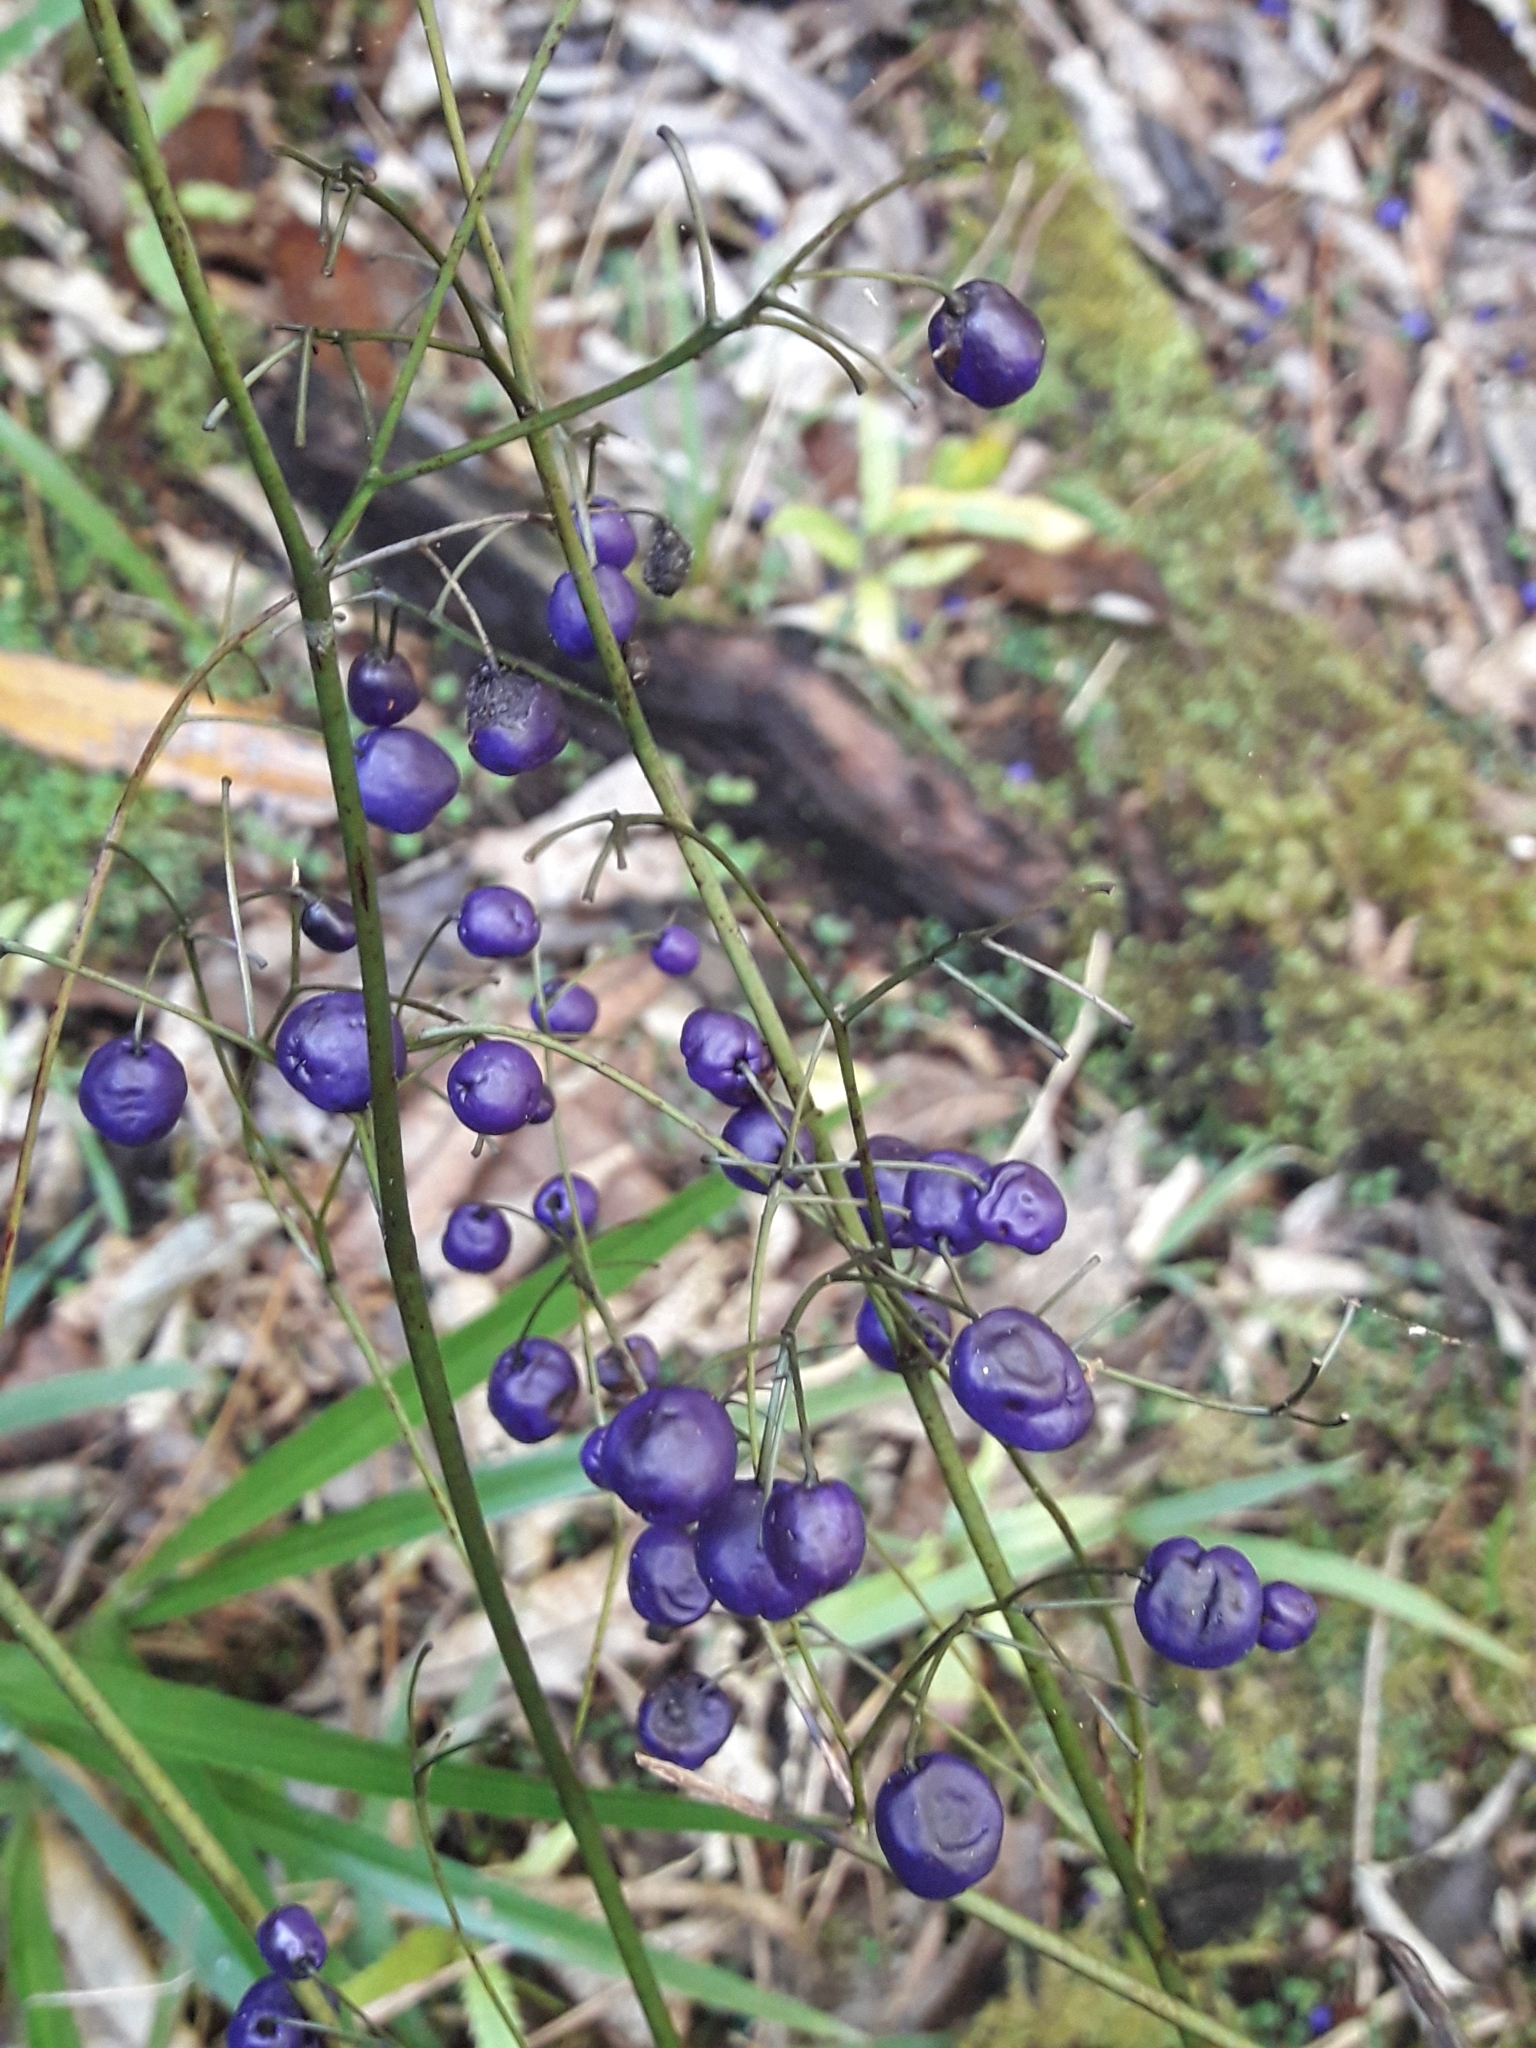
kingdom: Plantae
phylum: Tracheophyta
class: Liliopsida
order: Asparagales
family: Asphodelaceae
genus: Dianella
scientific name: Dianella nigra
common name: New zealand-blueberry
